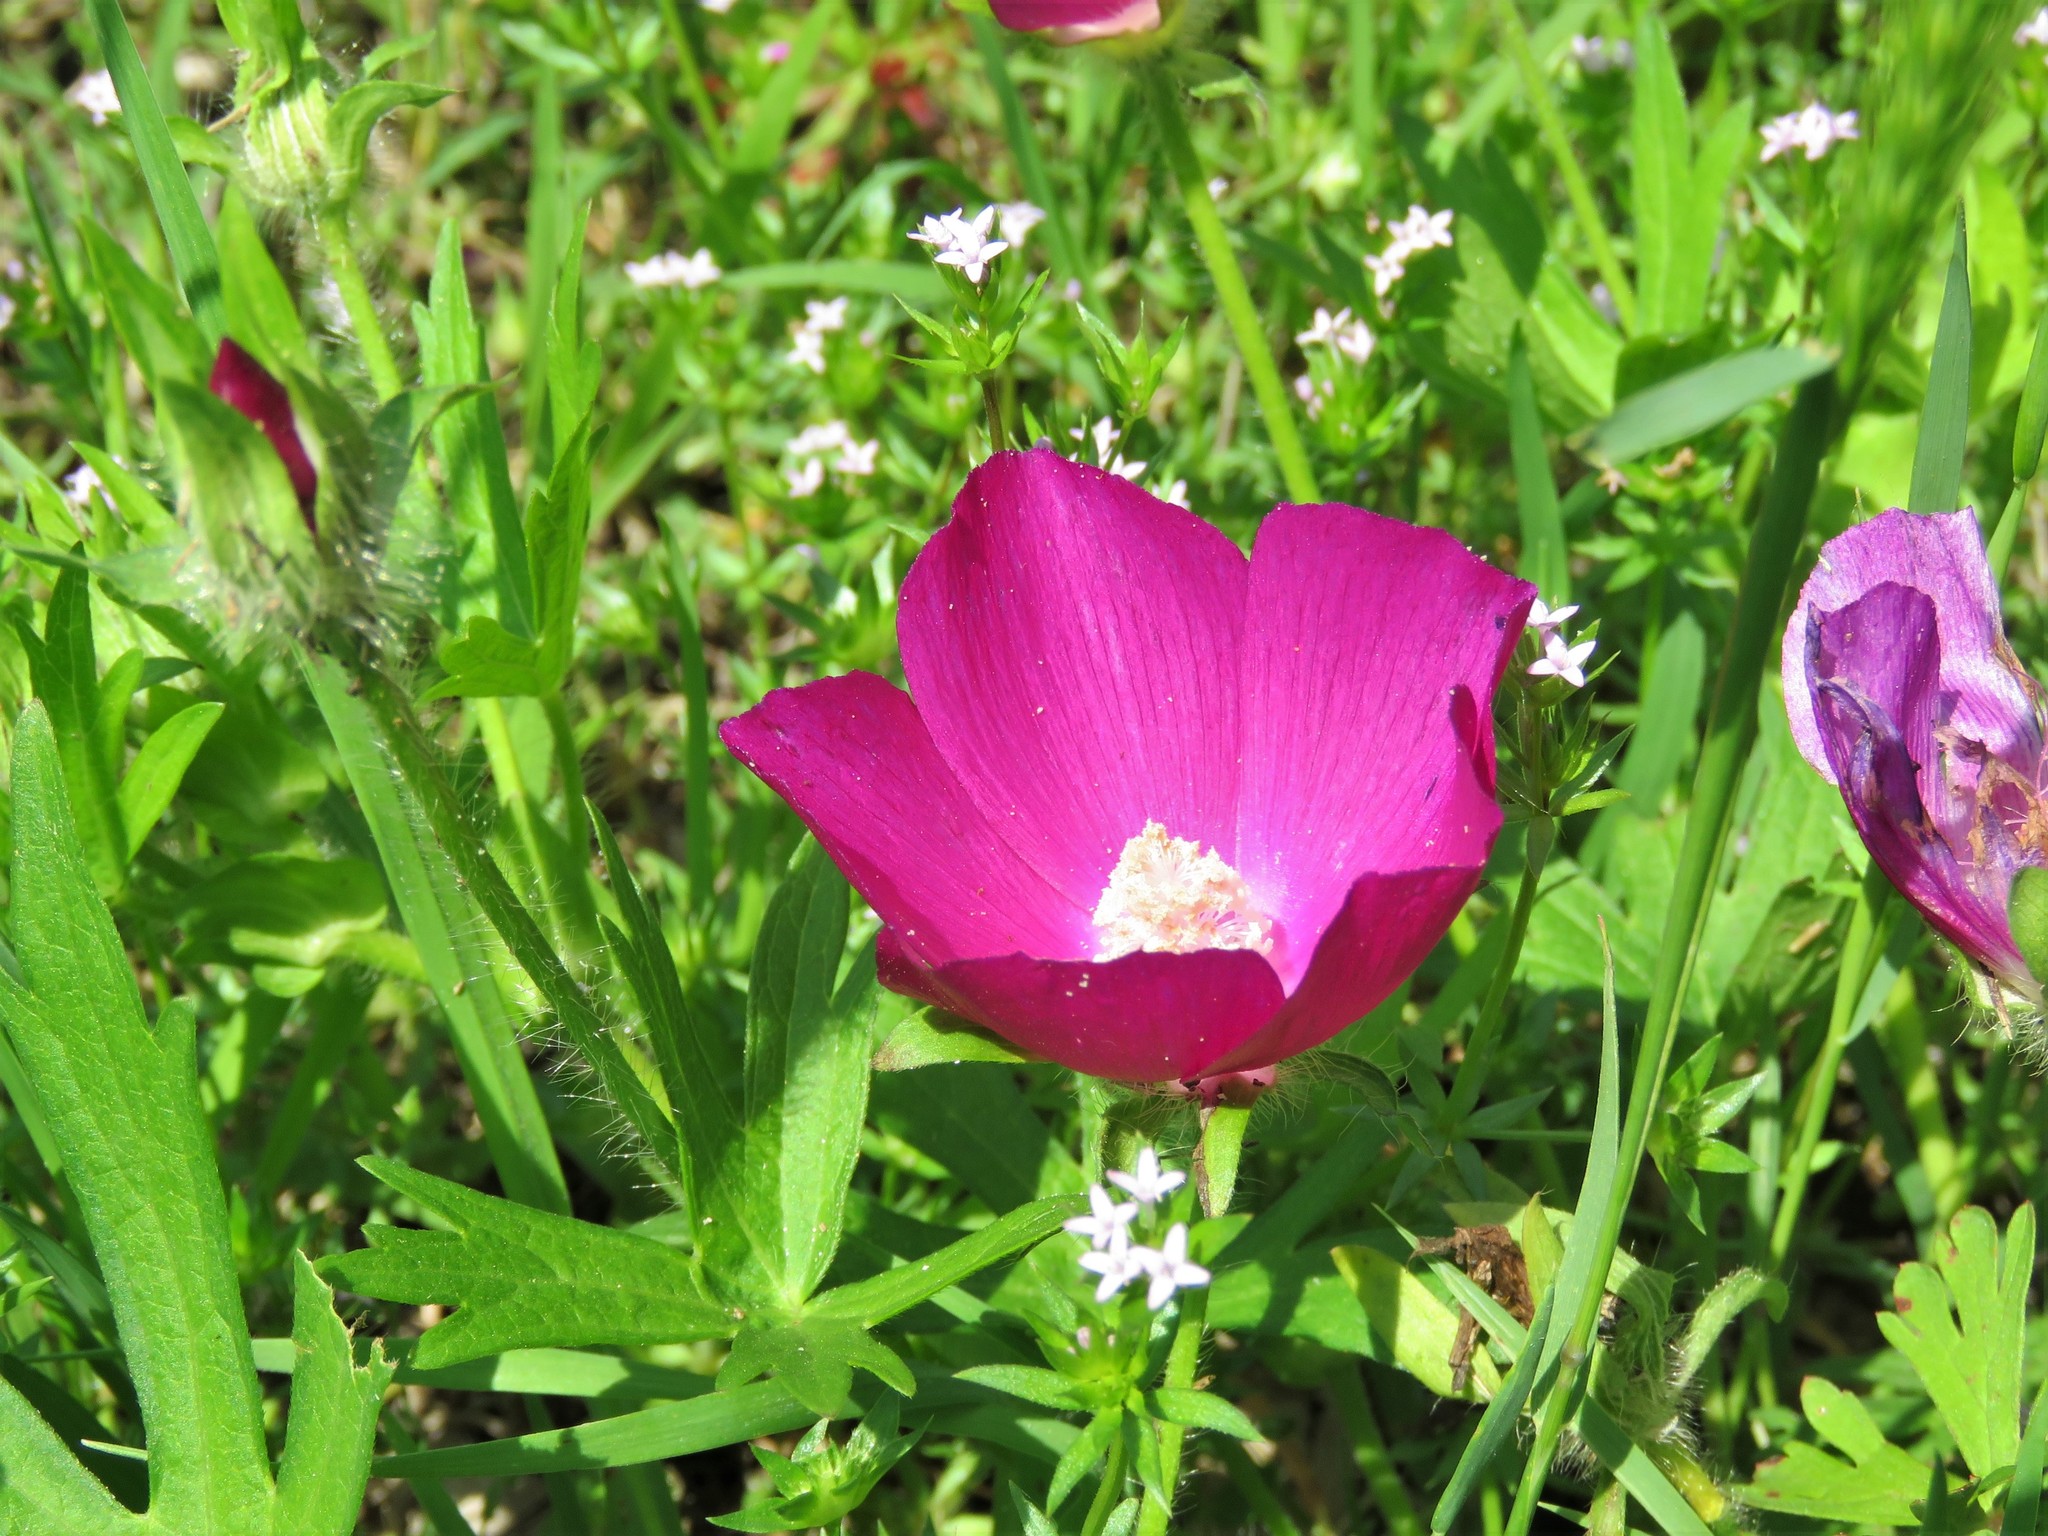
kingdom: Plantae
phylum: Tracheophyta
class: Magnoliopsida
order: Malvales
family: Malvaceae
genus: Callirhoe
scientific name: Callirhoe involucrata
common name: Purple poppy-mallow
